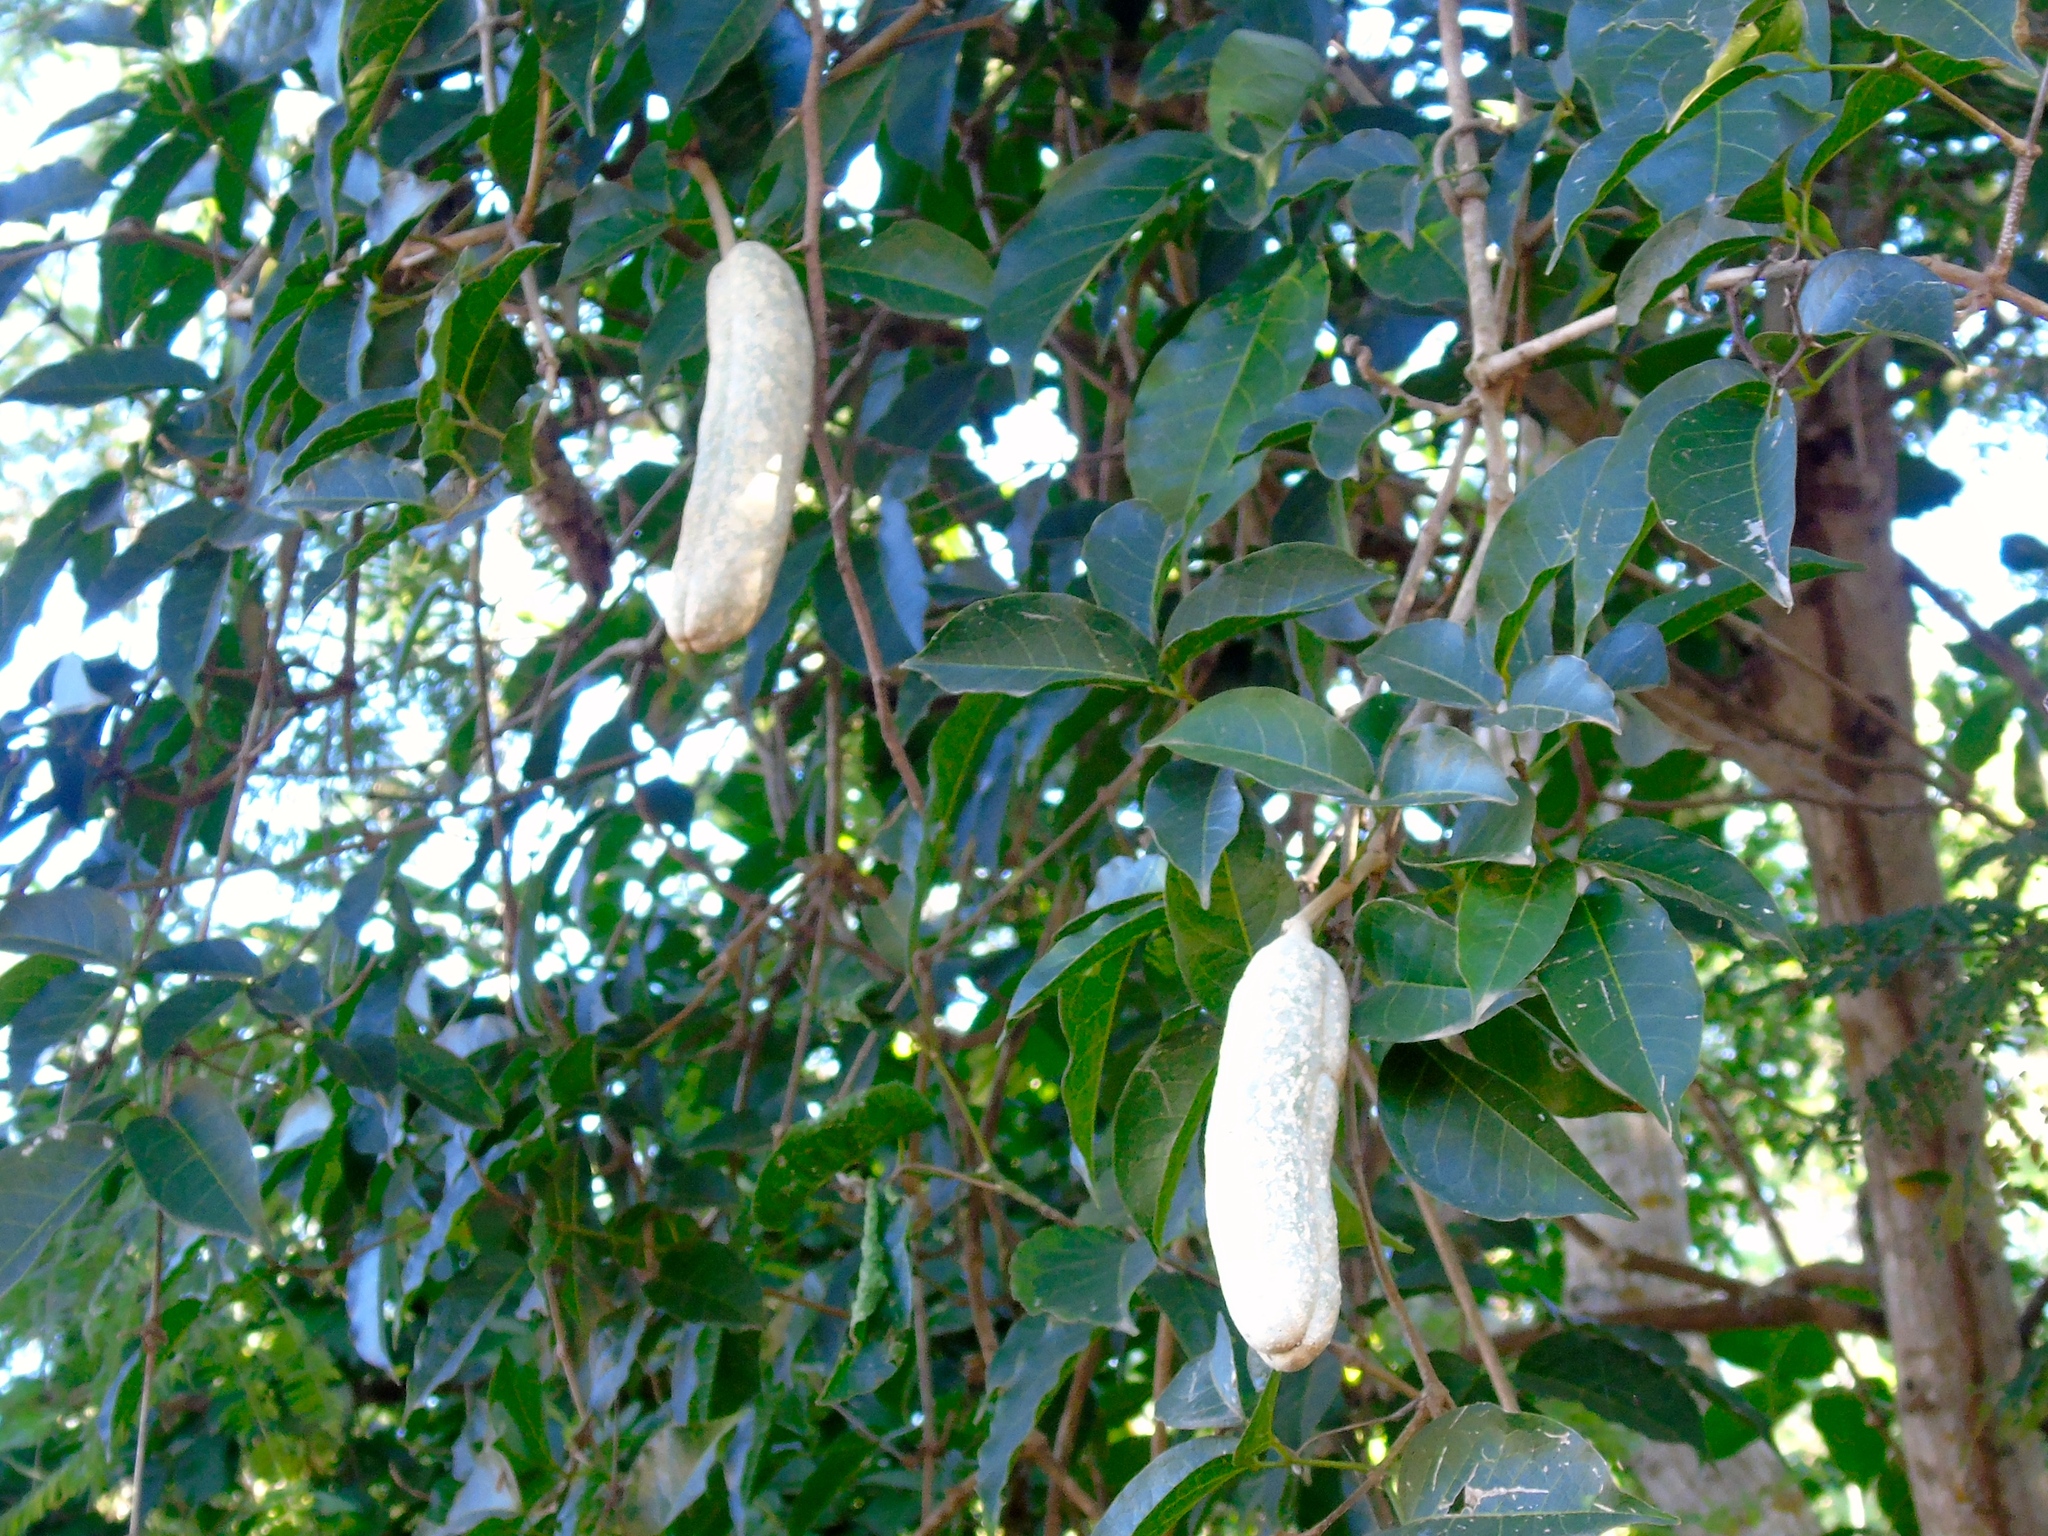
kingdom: Plantae
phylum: Tracheophyta
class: Magnoliopsida
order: Lamiales
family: Bignoniaceae
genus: Adenocalymma
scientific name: Adenocalymma inundatum
